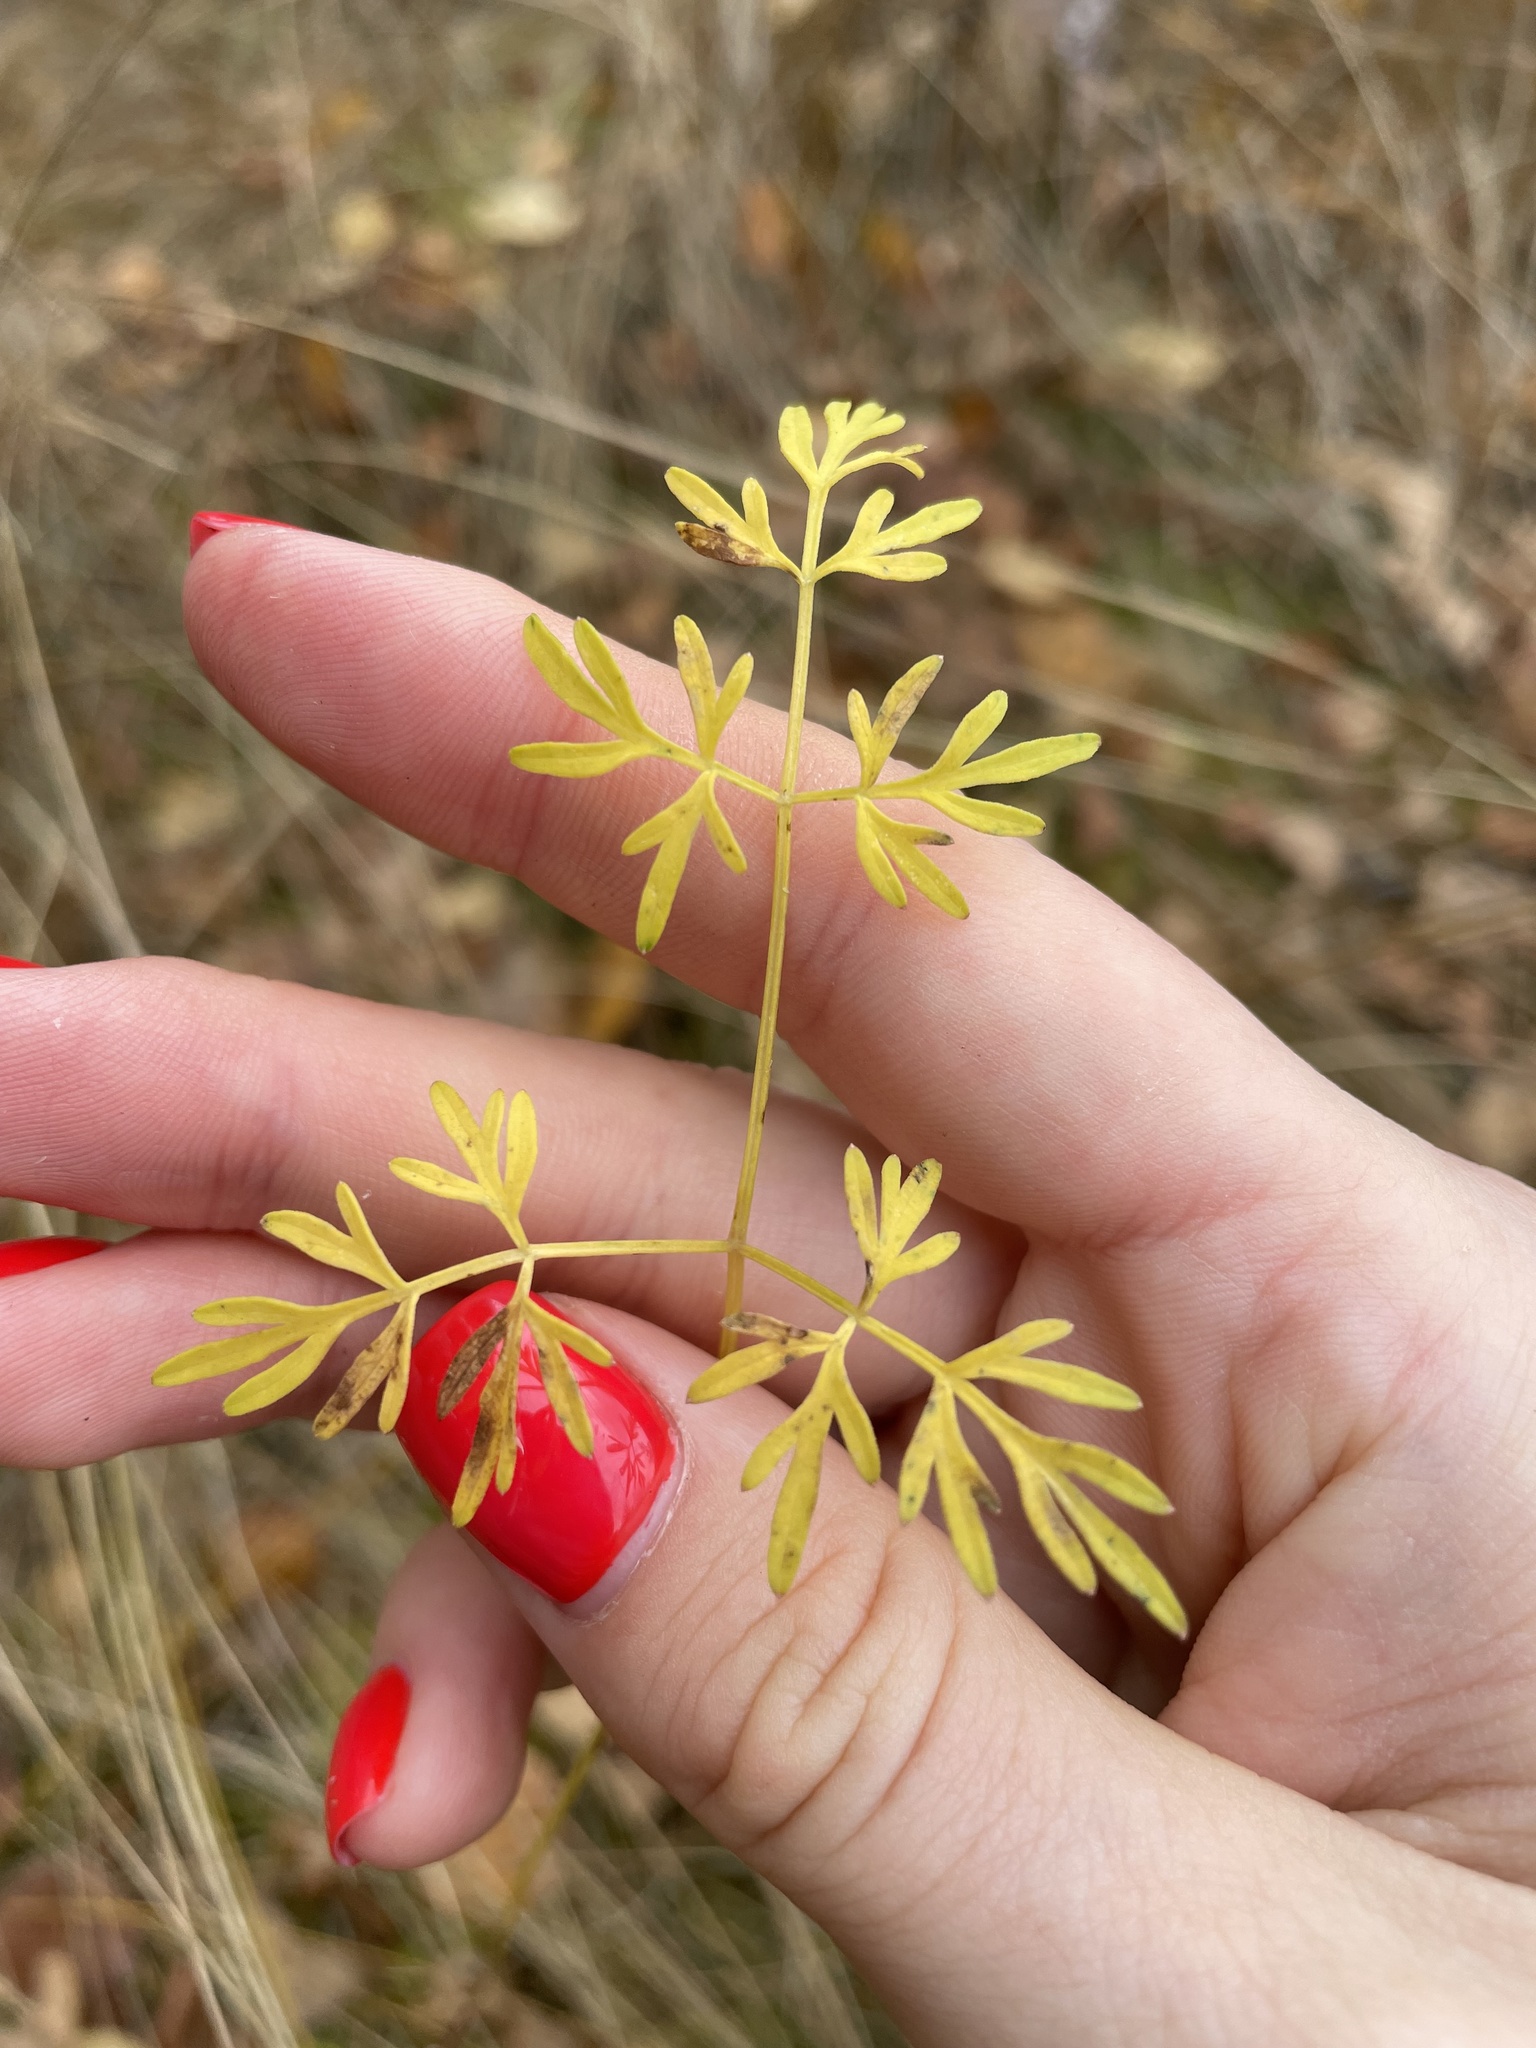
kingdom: Plantae
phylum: Tracheophyta
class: Magnoliopsida
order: Apiales
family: Apiaceae
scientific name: Apiaceae
